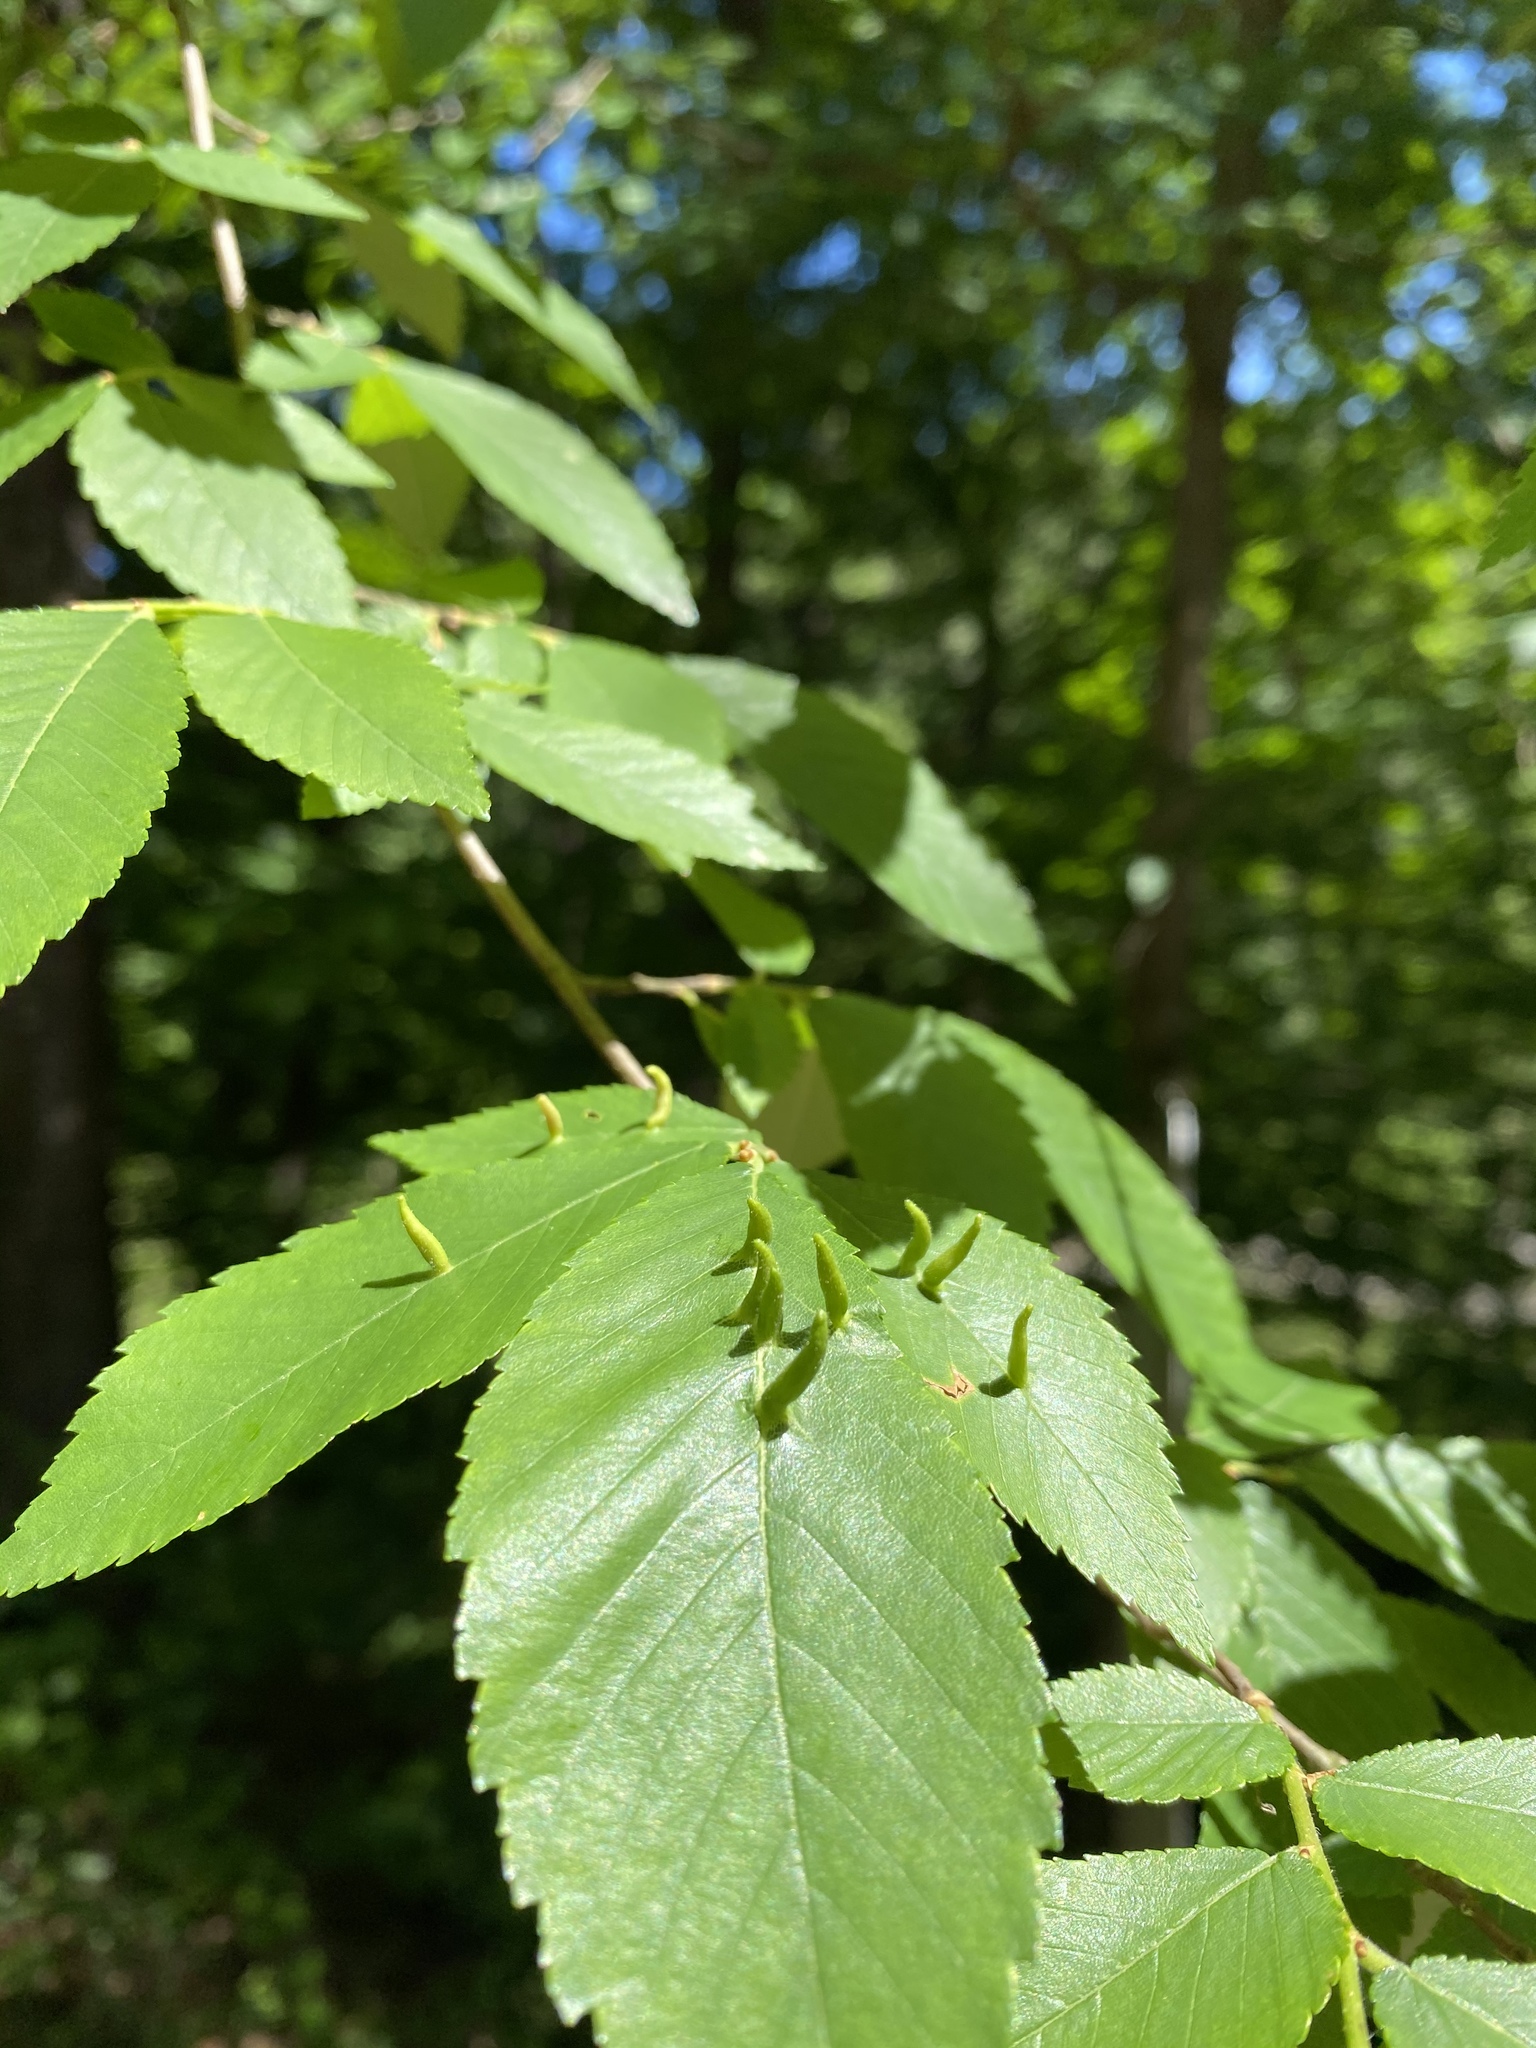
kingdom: Animalia
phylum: Arthropoda
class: Arachnida
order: Trombidiformes
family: Eriophyidae
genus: Aceria
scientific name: Aceria
